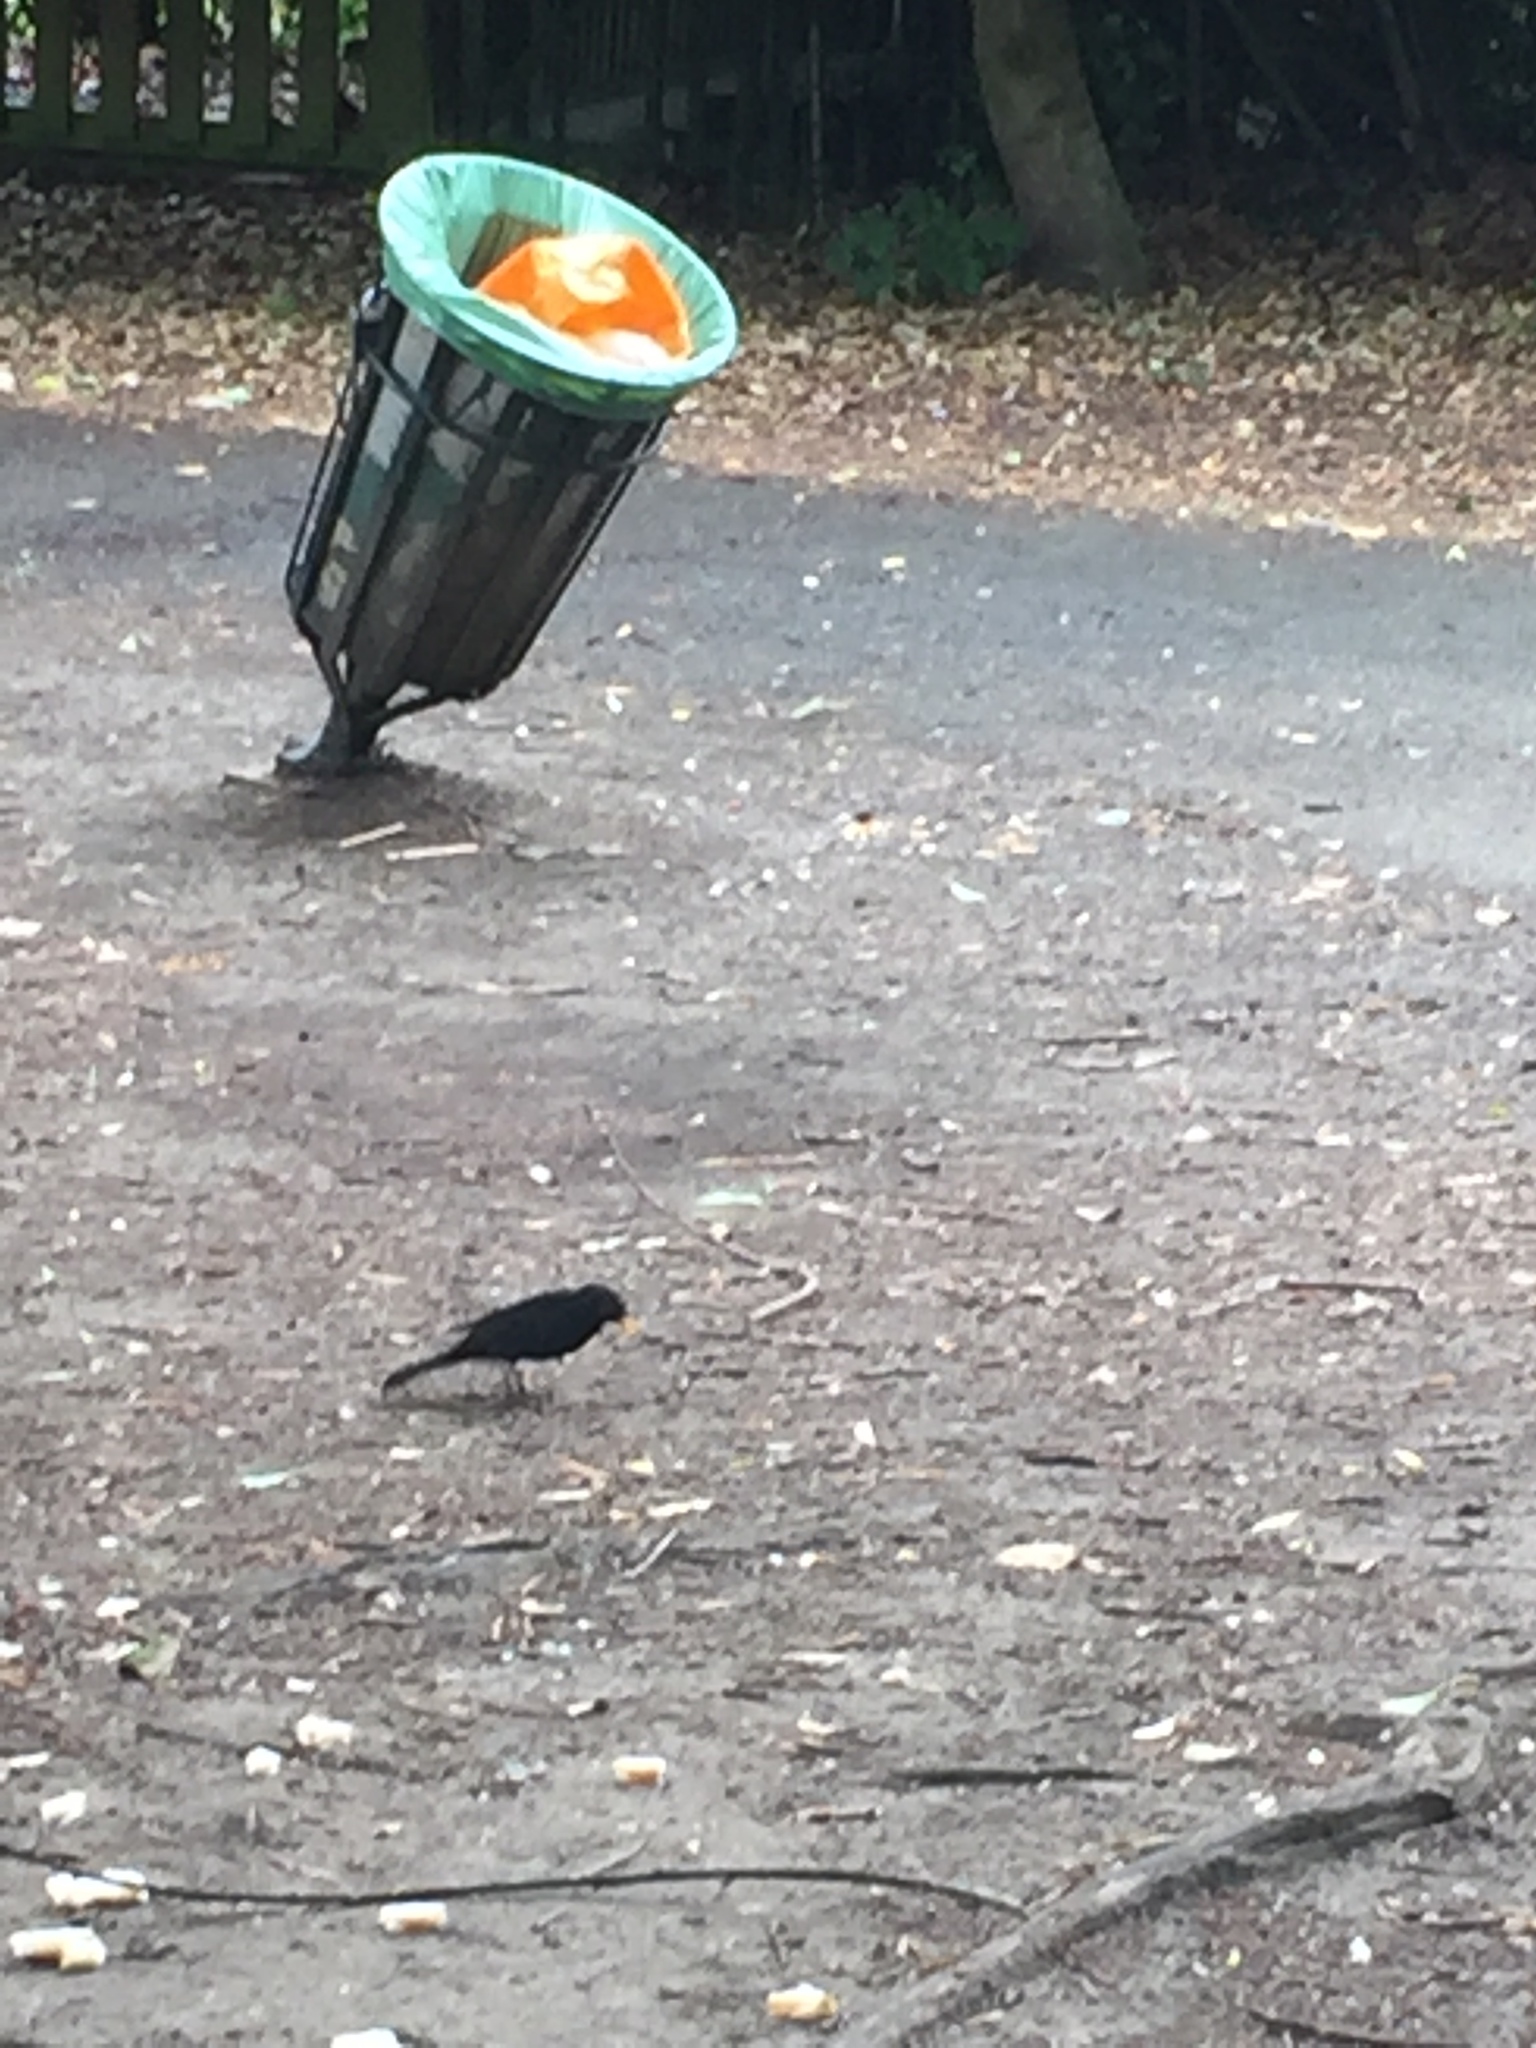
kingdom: Animalia
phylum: Chordata
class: Aves
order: Passeriformes
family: Turdidae
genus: Turdus
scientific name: Turdus merula
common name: Common blackbird
